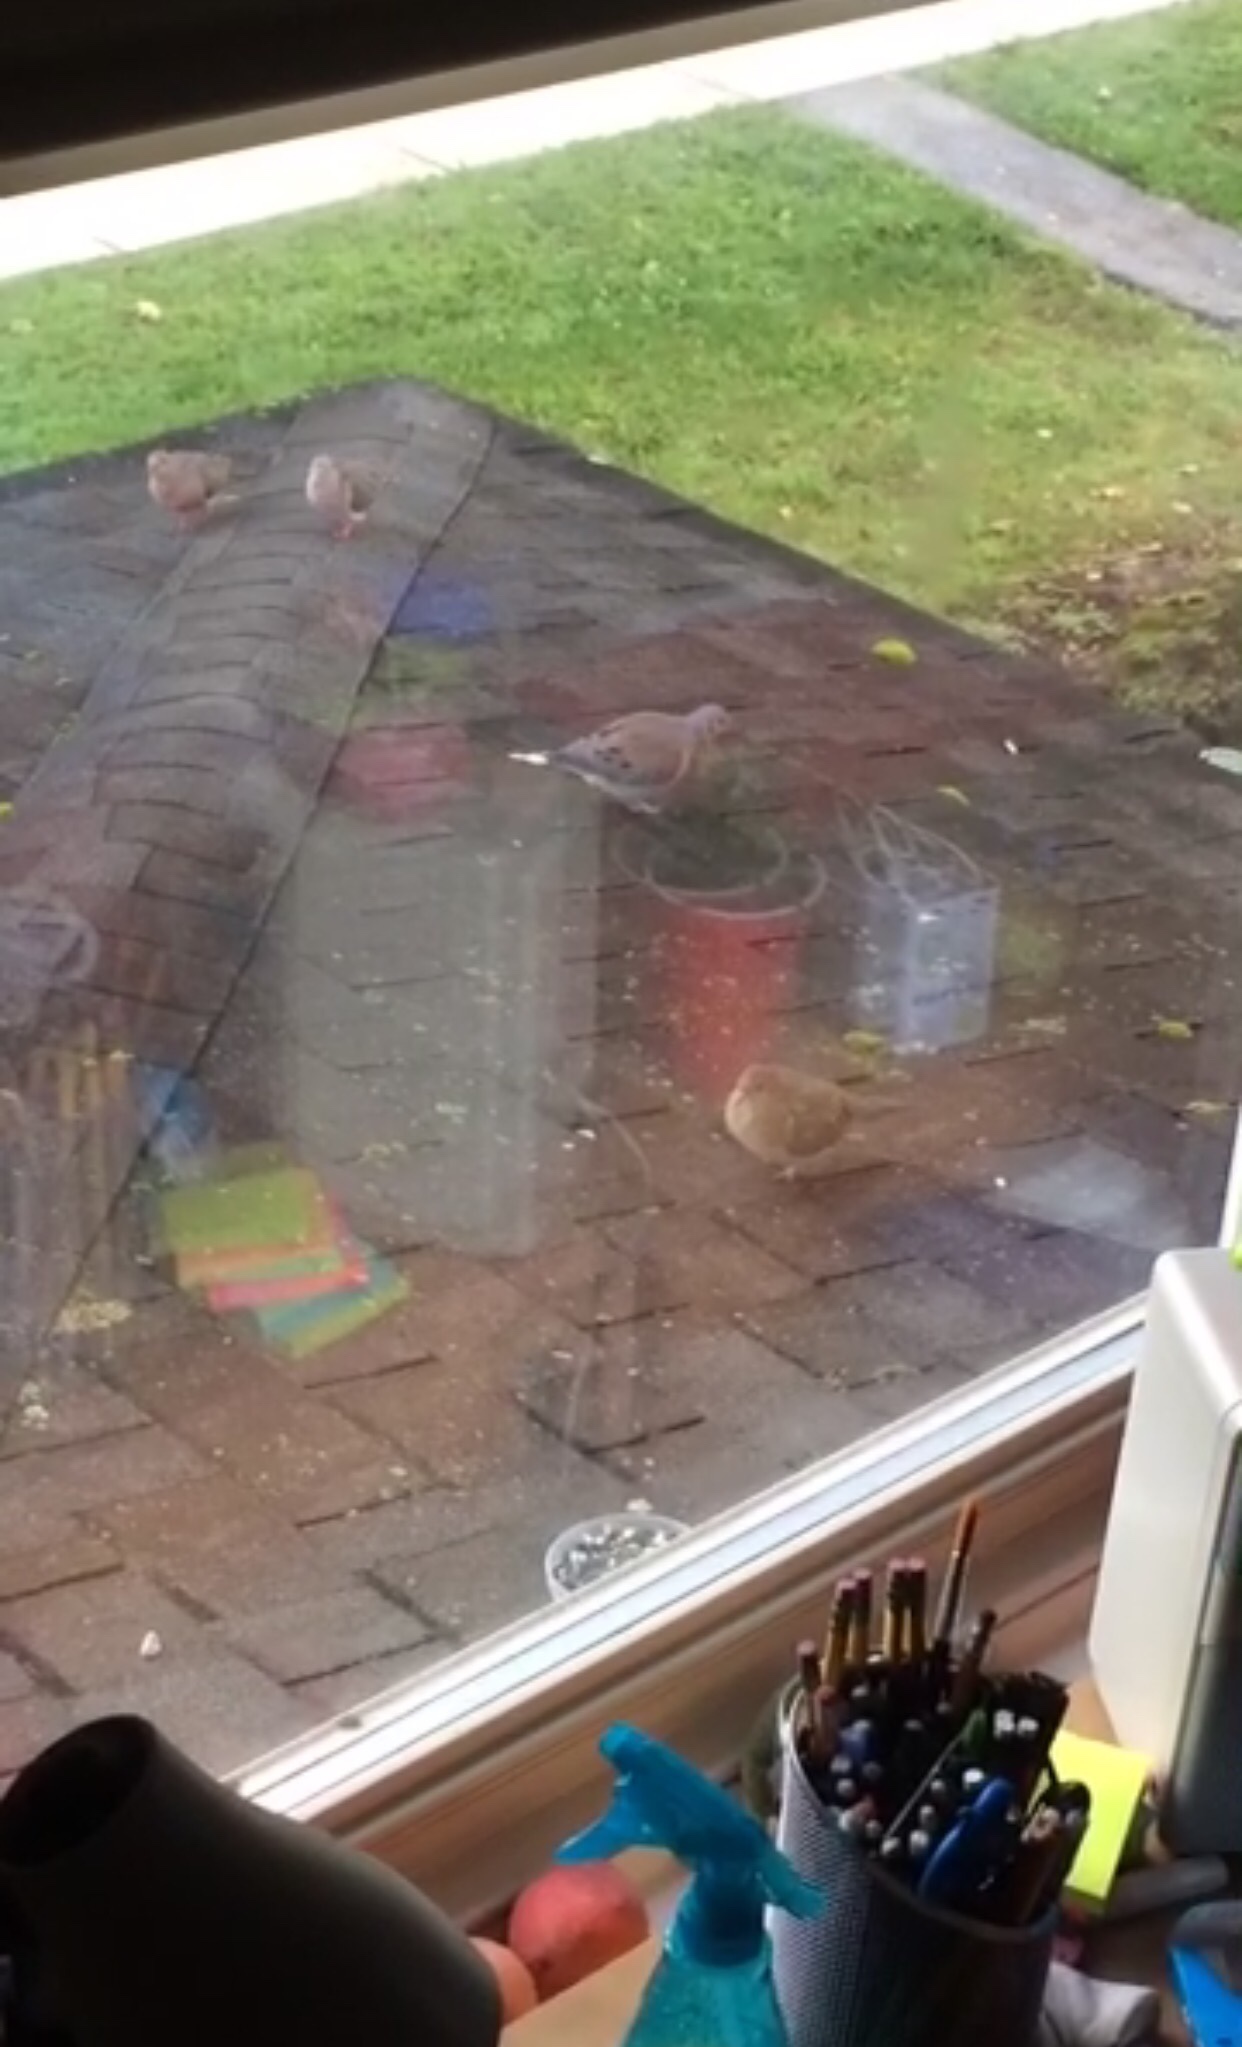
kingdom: Animalia
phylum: Chordata
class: Aves
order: Columbiformes
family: Columbidae
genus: Zenaida
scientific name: Zenaida macroura
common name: Mourning dove
